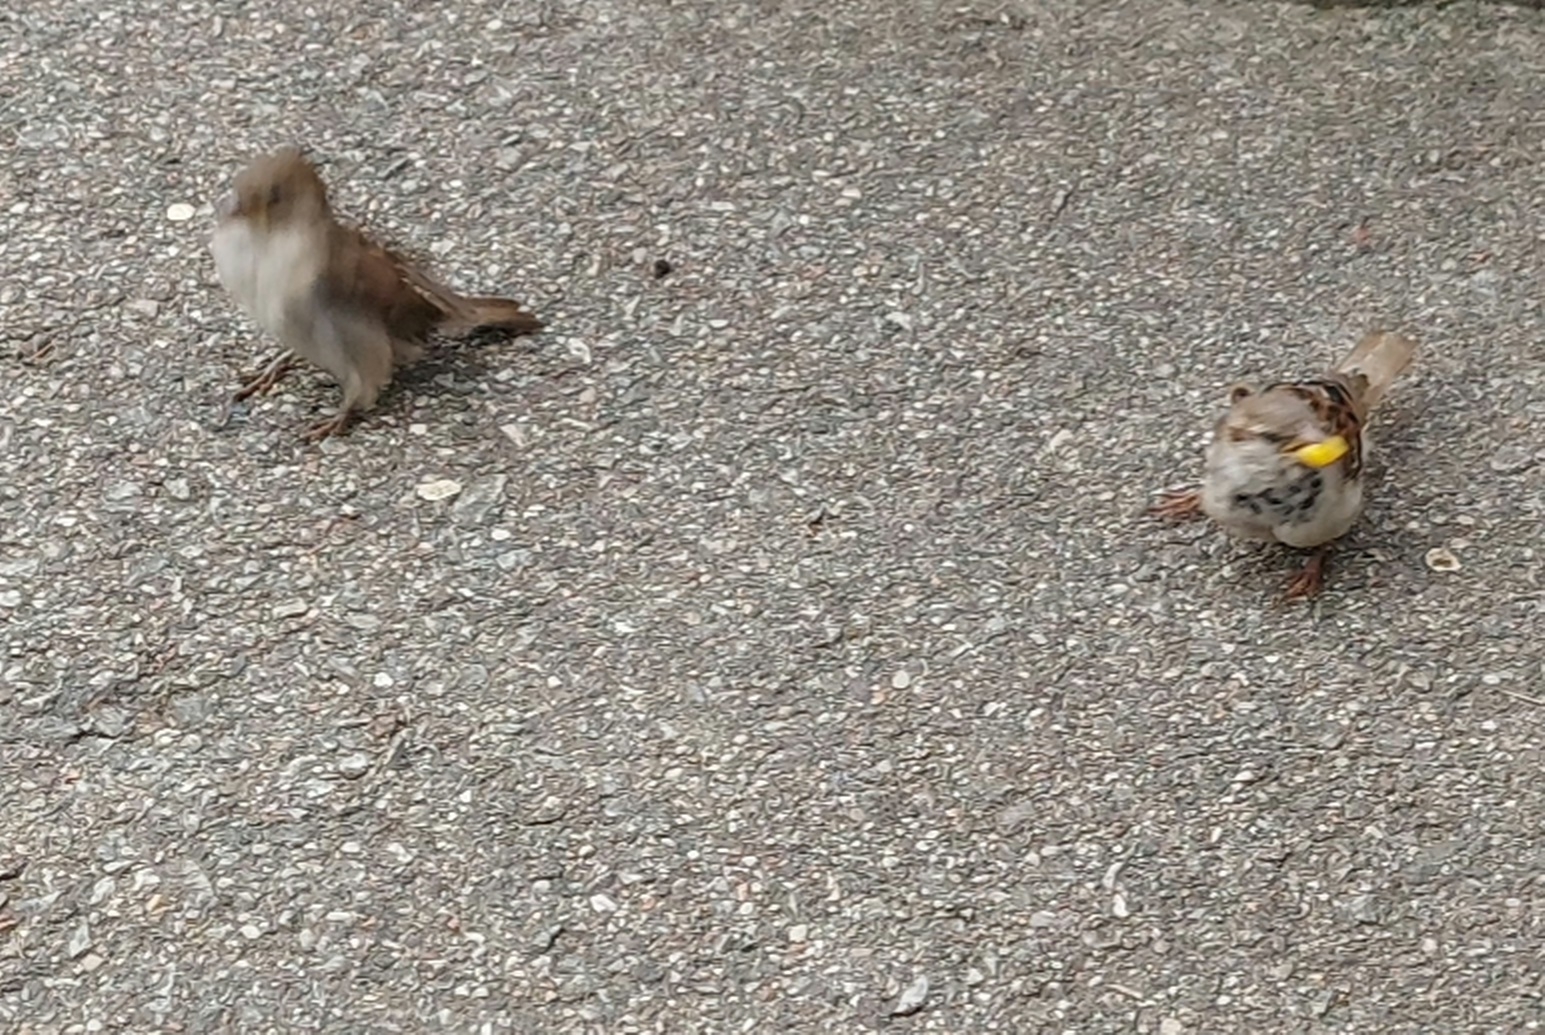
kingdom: Animalia
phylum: Chordata
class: Aves
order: Passeriformes
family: Passeridae
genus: Passer
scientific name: Passer domesticus
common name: House sparrow
